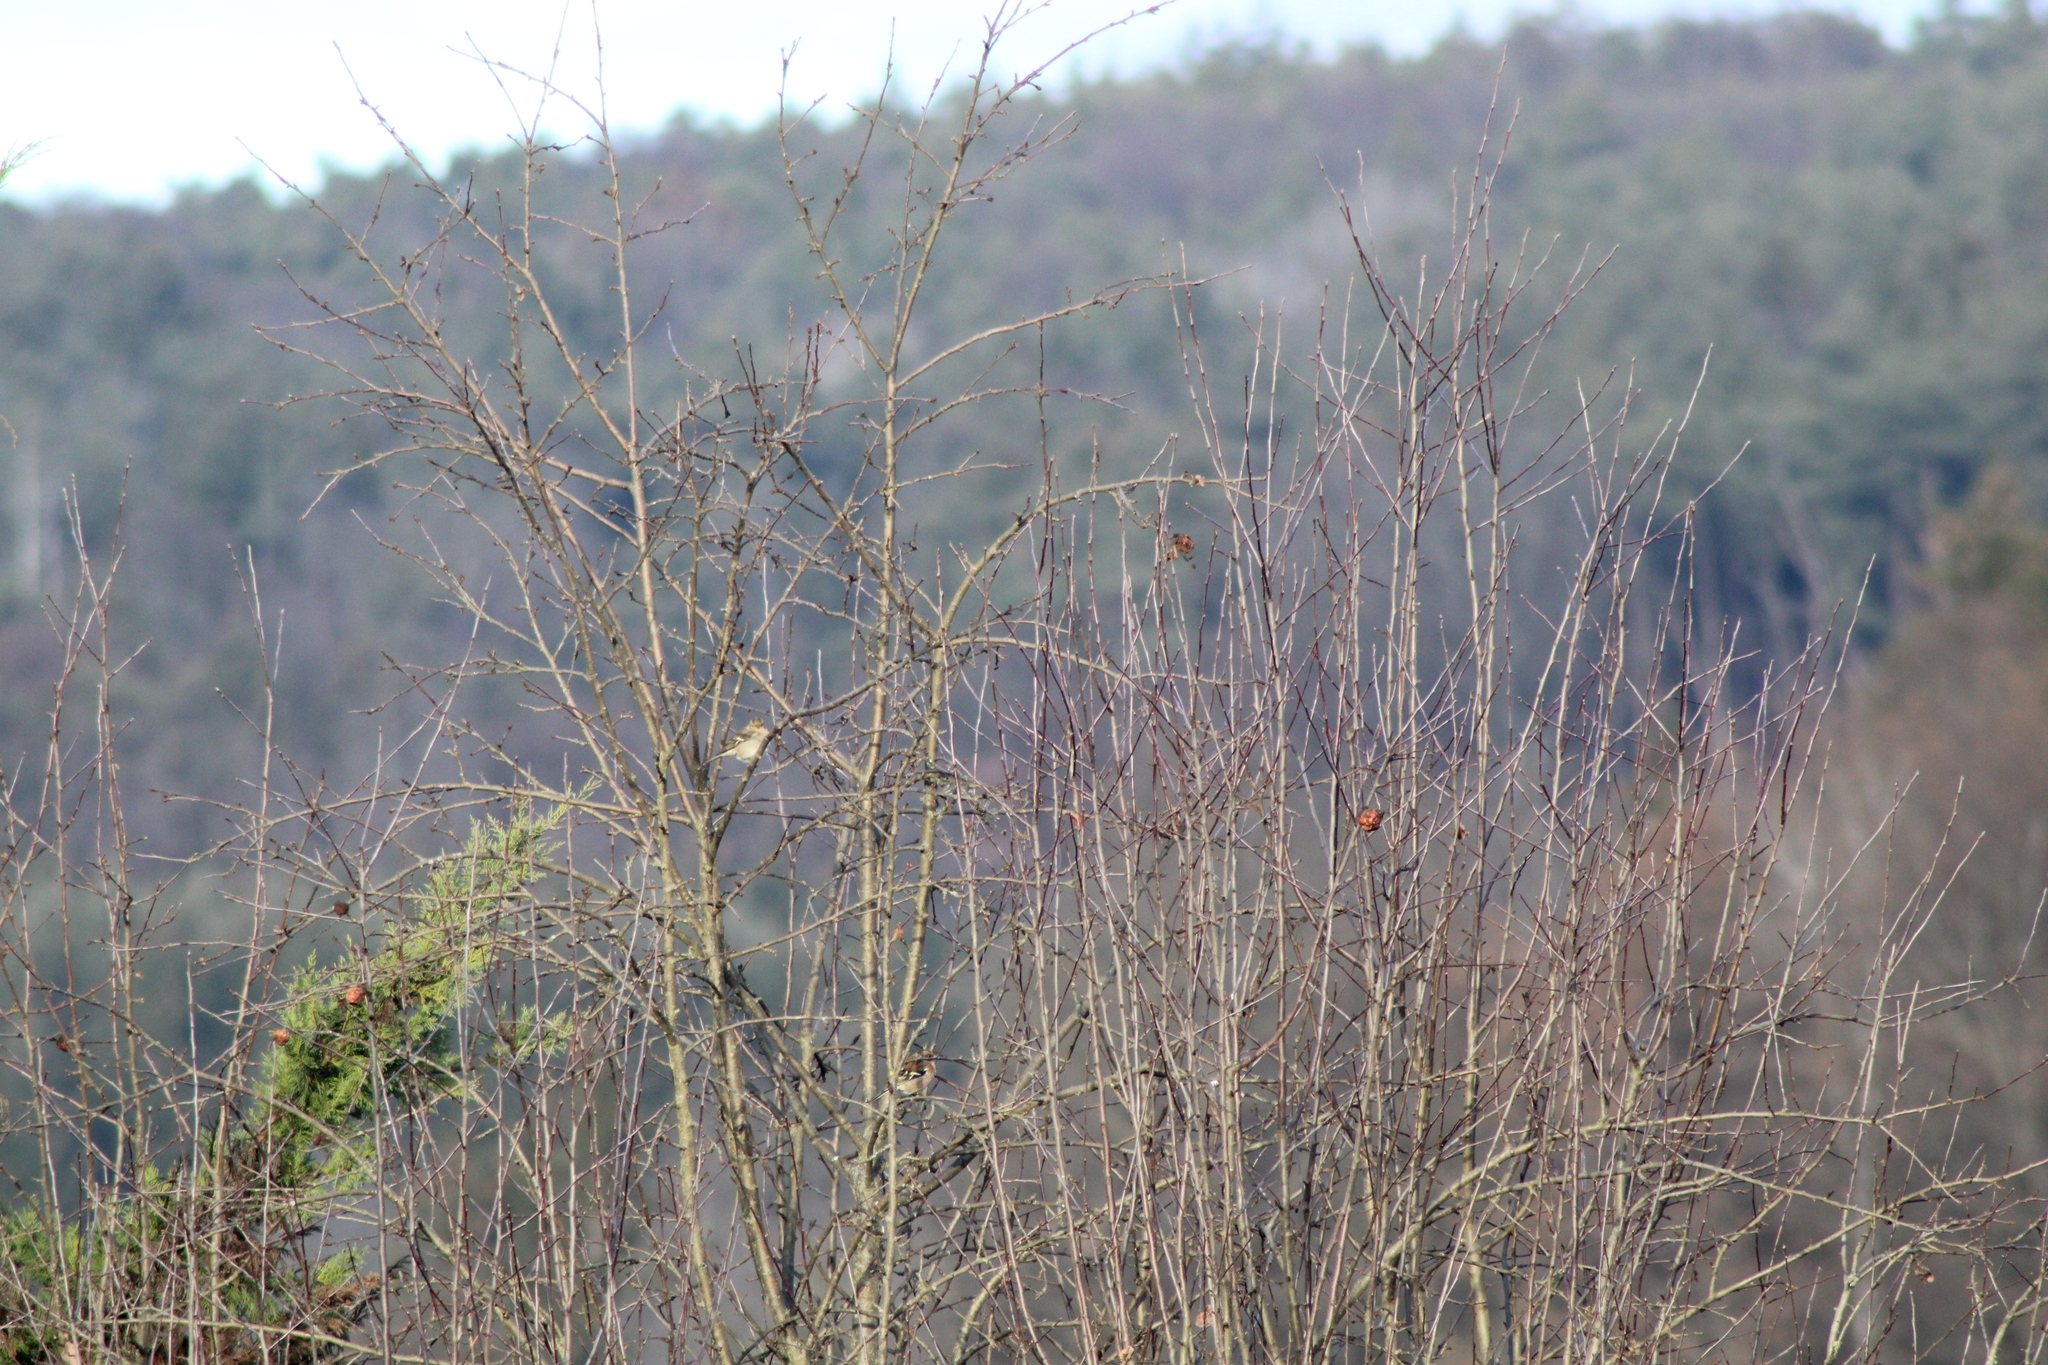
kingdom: Animalia
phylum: Chordata
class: Aves
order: Passeriformes
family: Fringillidae
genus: Fringilla
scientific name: Fringilla coelebs
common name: Common chaffinch
